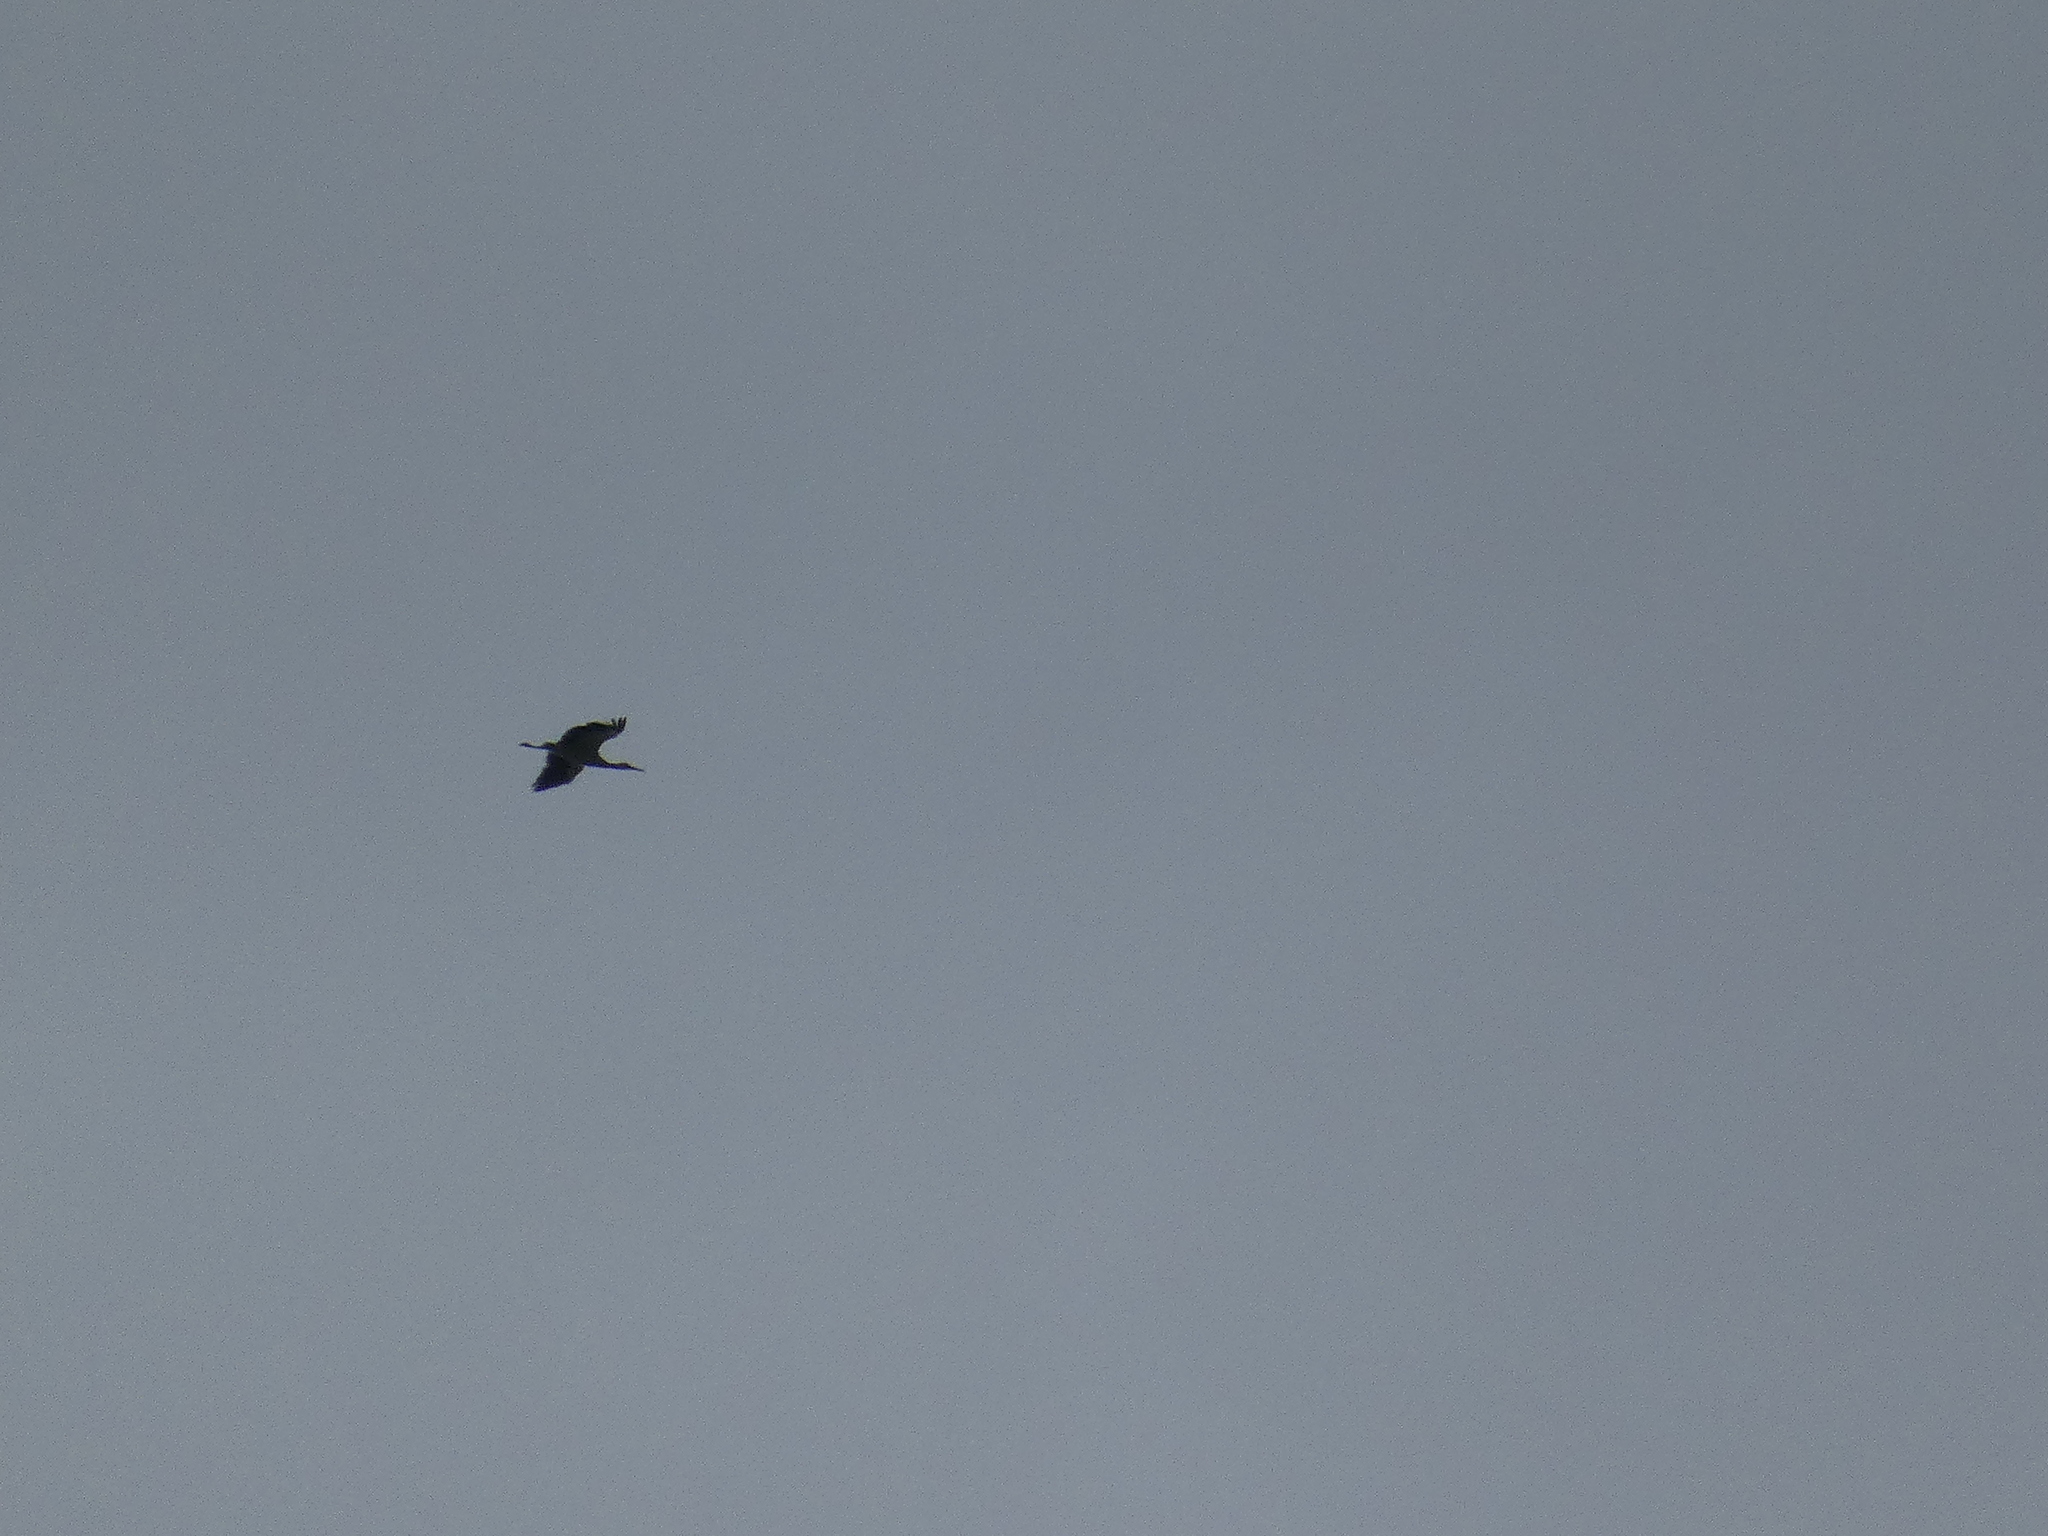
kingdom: Animalia
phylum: Chordata
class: Aves
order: Ciconiiformes
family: Ciconiidae
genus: Ciconia
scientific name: Ciconia ciconia
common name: White stork
